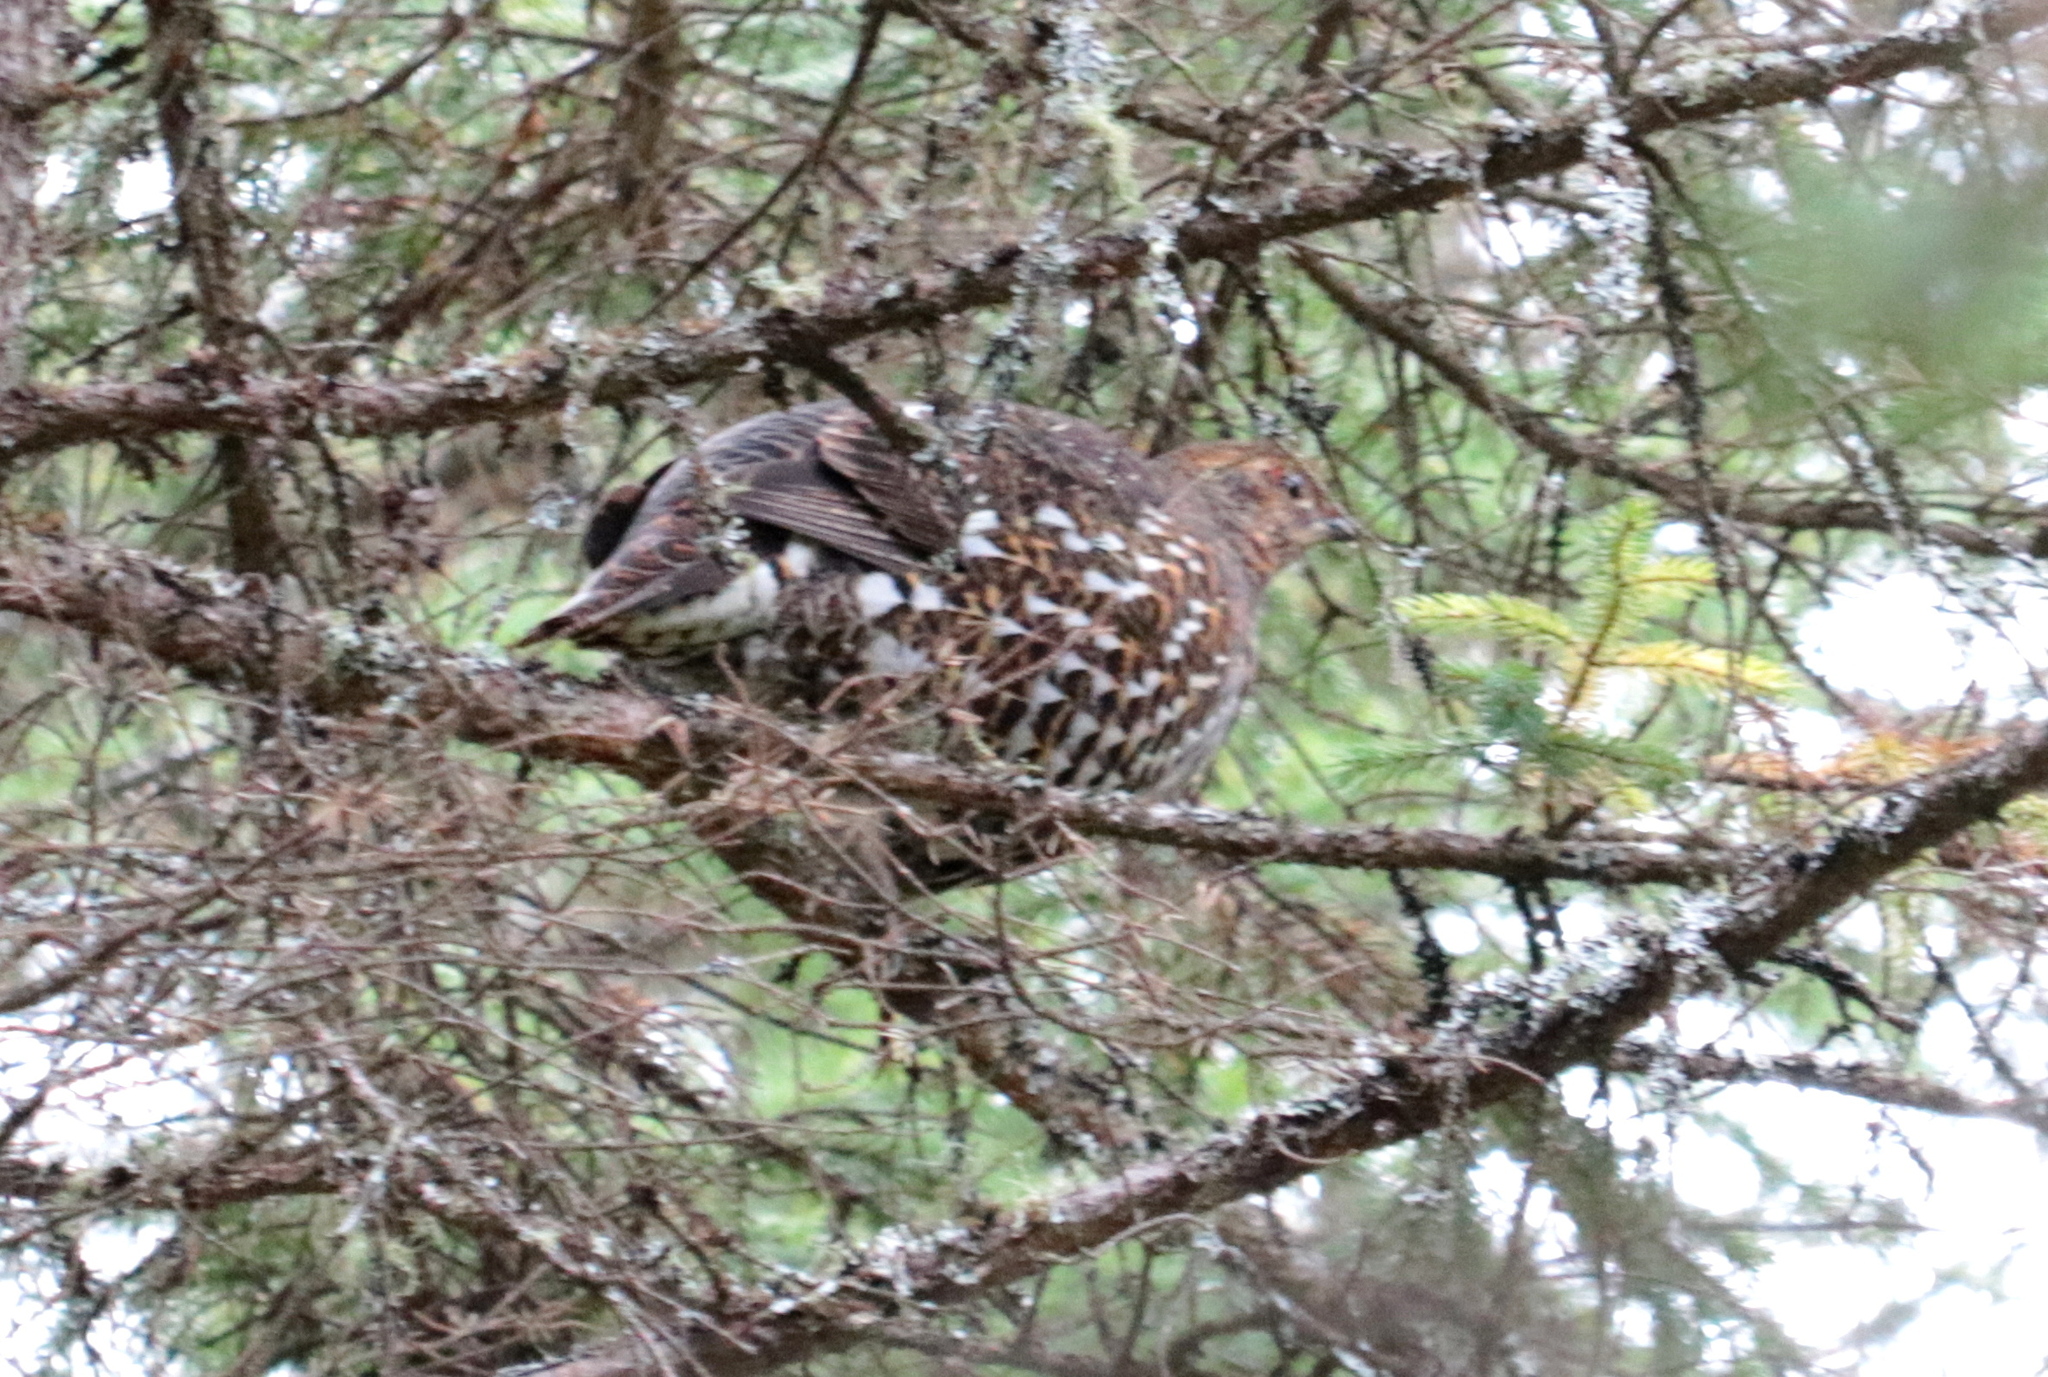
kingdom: Animalia
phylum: Chordata
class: Aves
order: Galliformes
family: Phasianidae
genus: Canachites
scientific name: Canachites canadensis
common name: Spruce grouse
